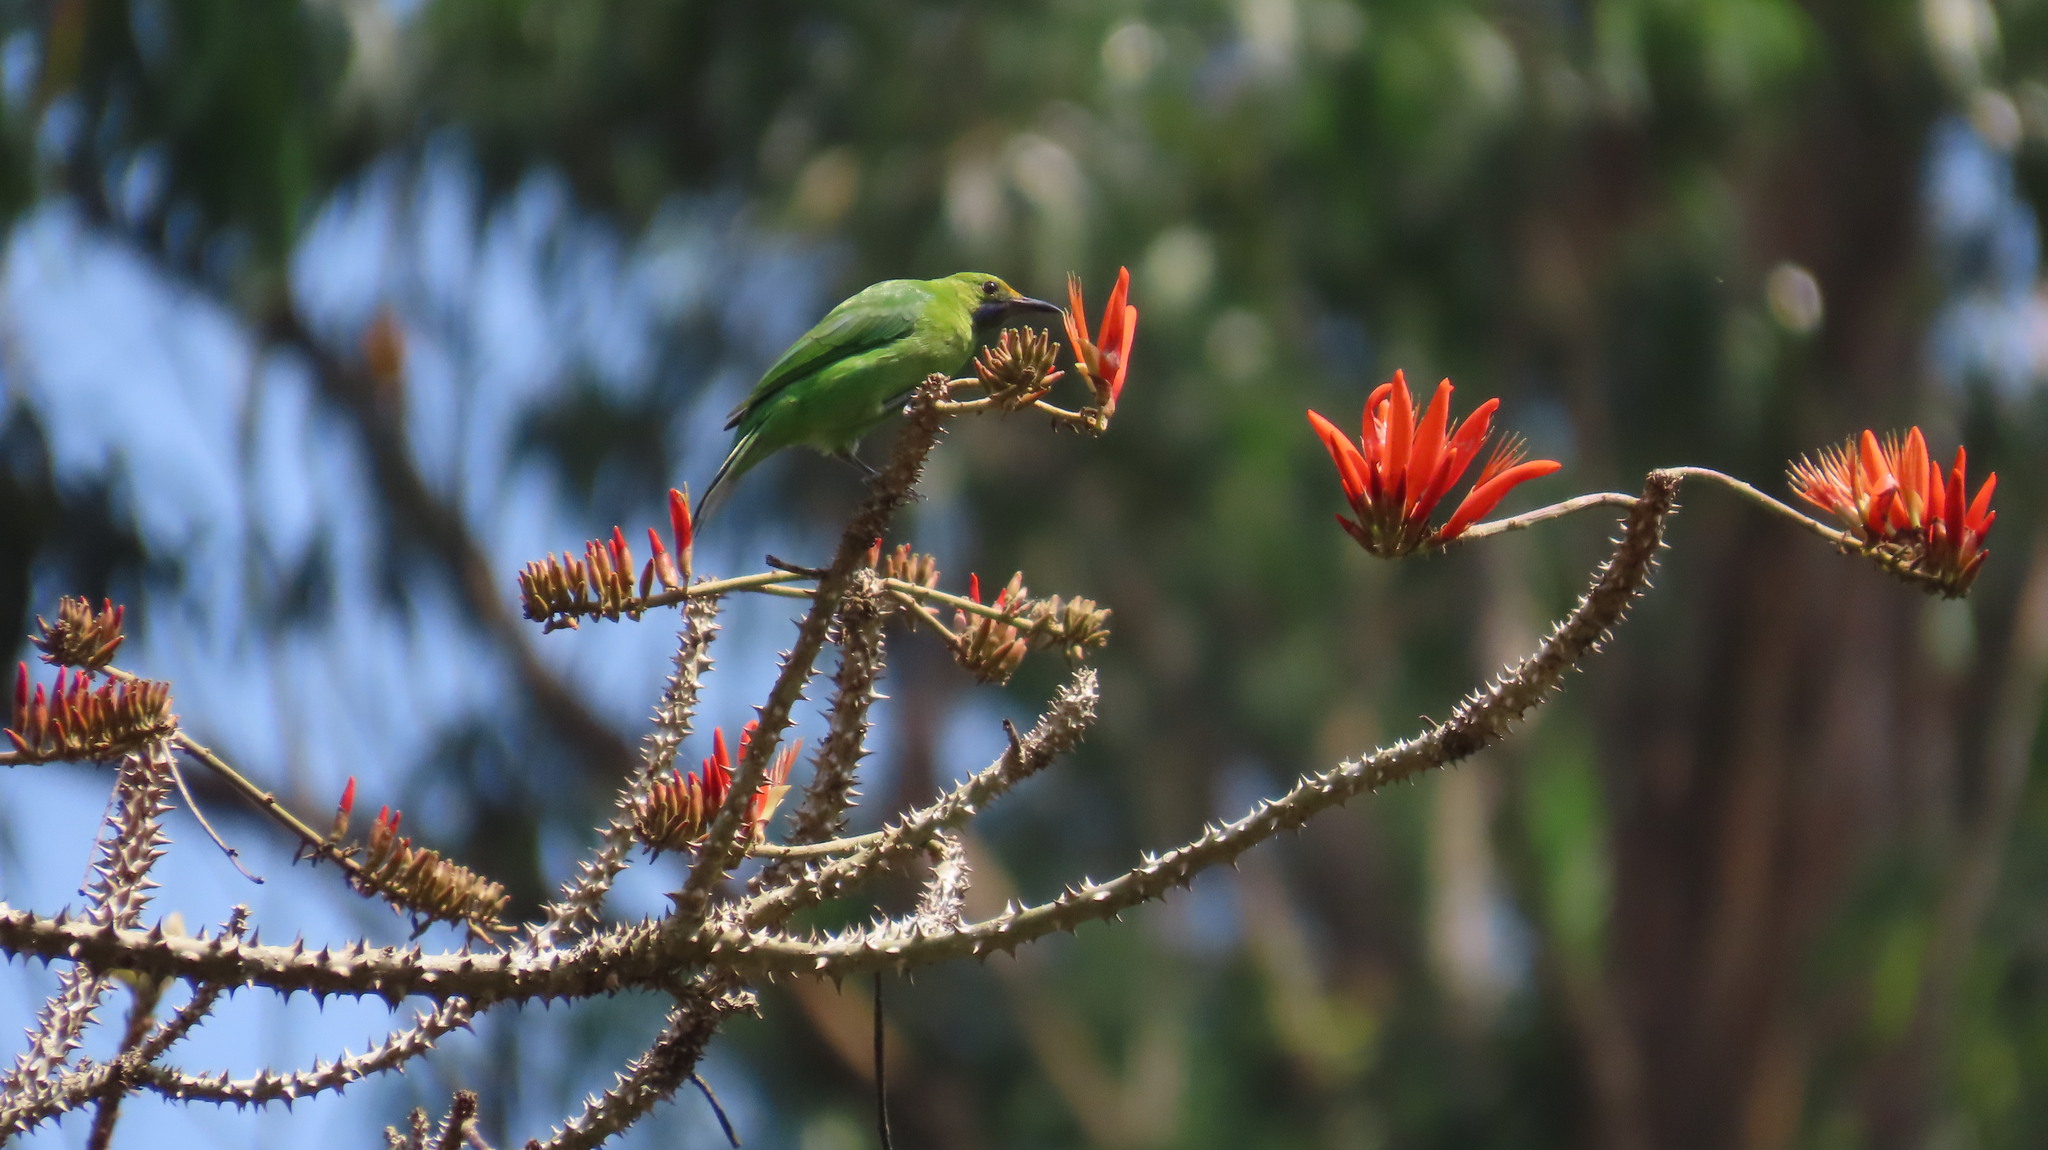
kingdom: Animalia
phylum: Chordata
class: Aves
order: Passeriformes
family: Chloropseidae
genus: Chloropsis
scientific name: Chloropsis aurifrons
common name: Golden-fronted leafbird
